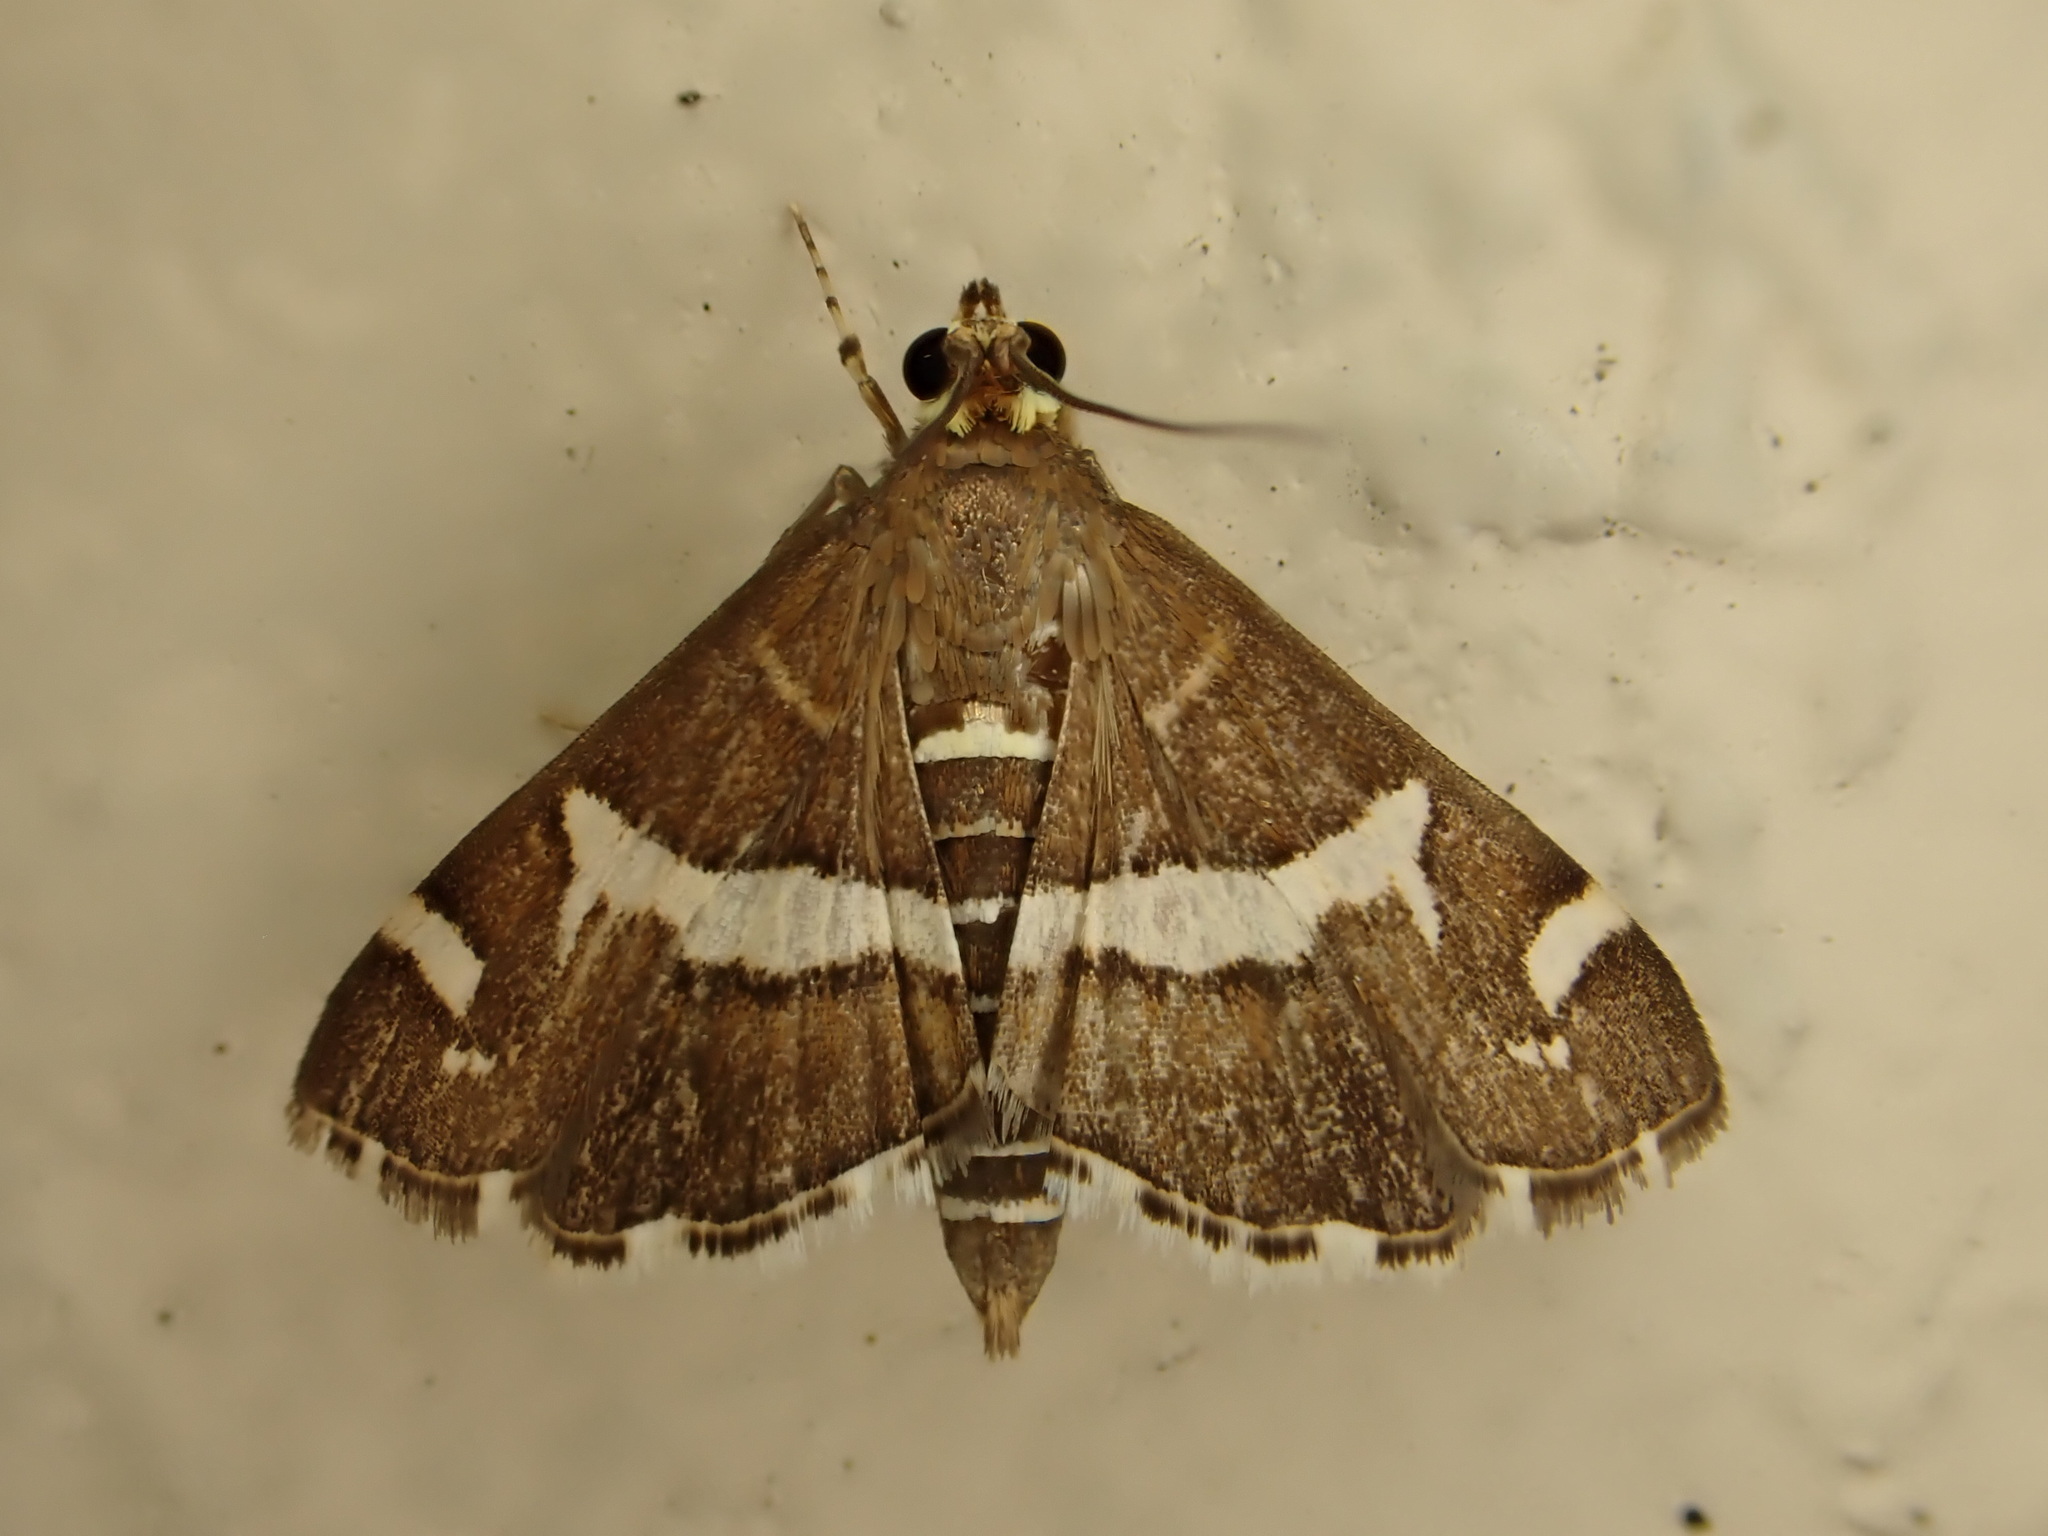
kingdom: Animalia
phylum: Arthropoda
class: Insecta
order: Lepidoptera
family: Crambidae
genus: Spoladea
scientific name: Spoladea recurvalis
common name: Beet webworm moth
